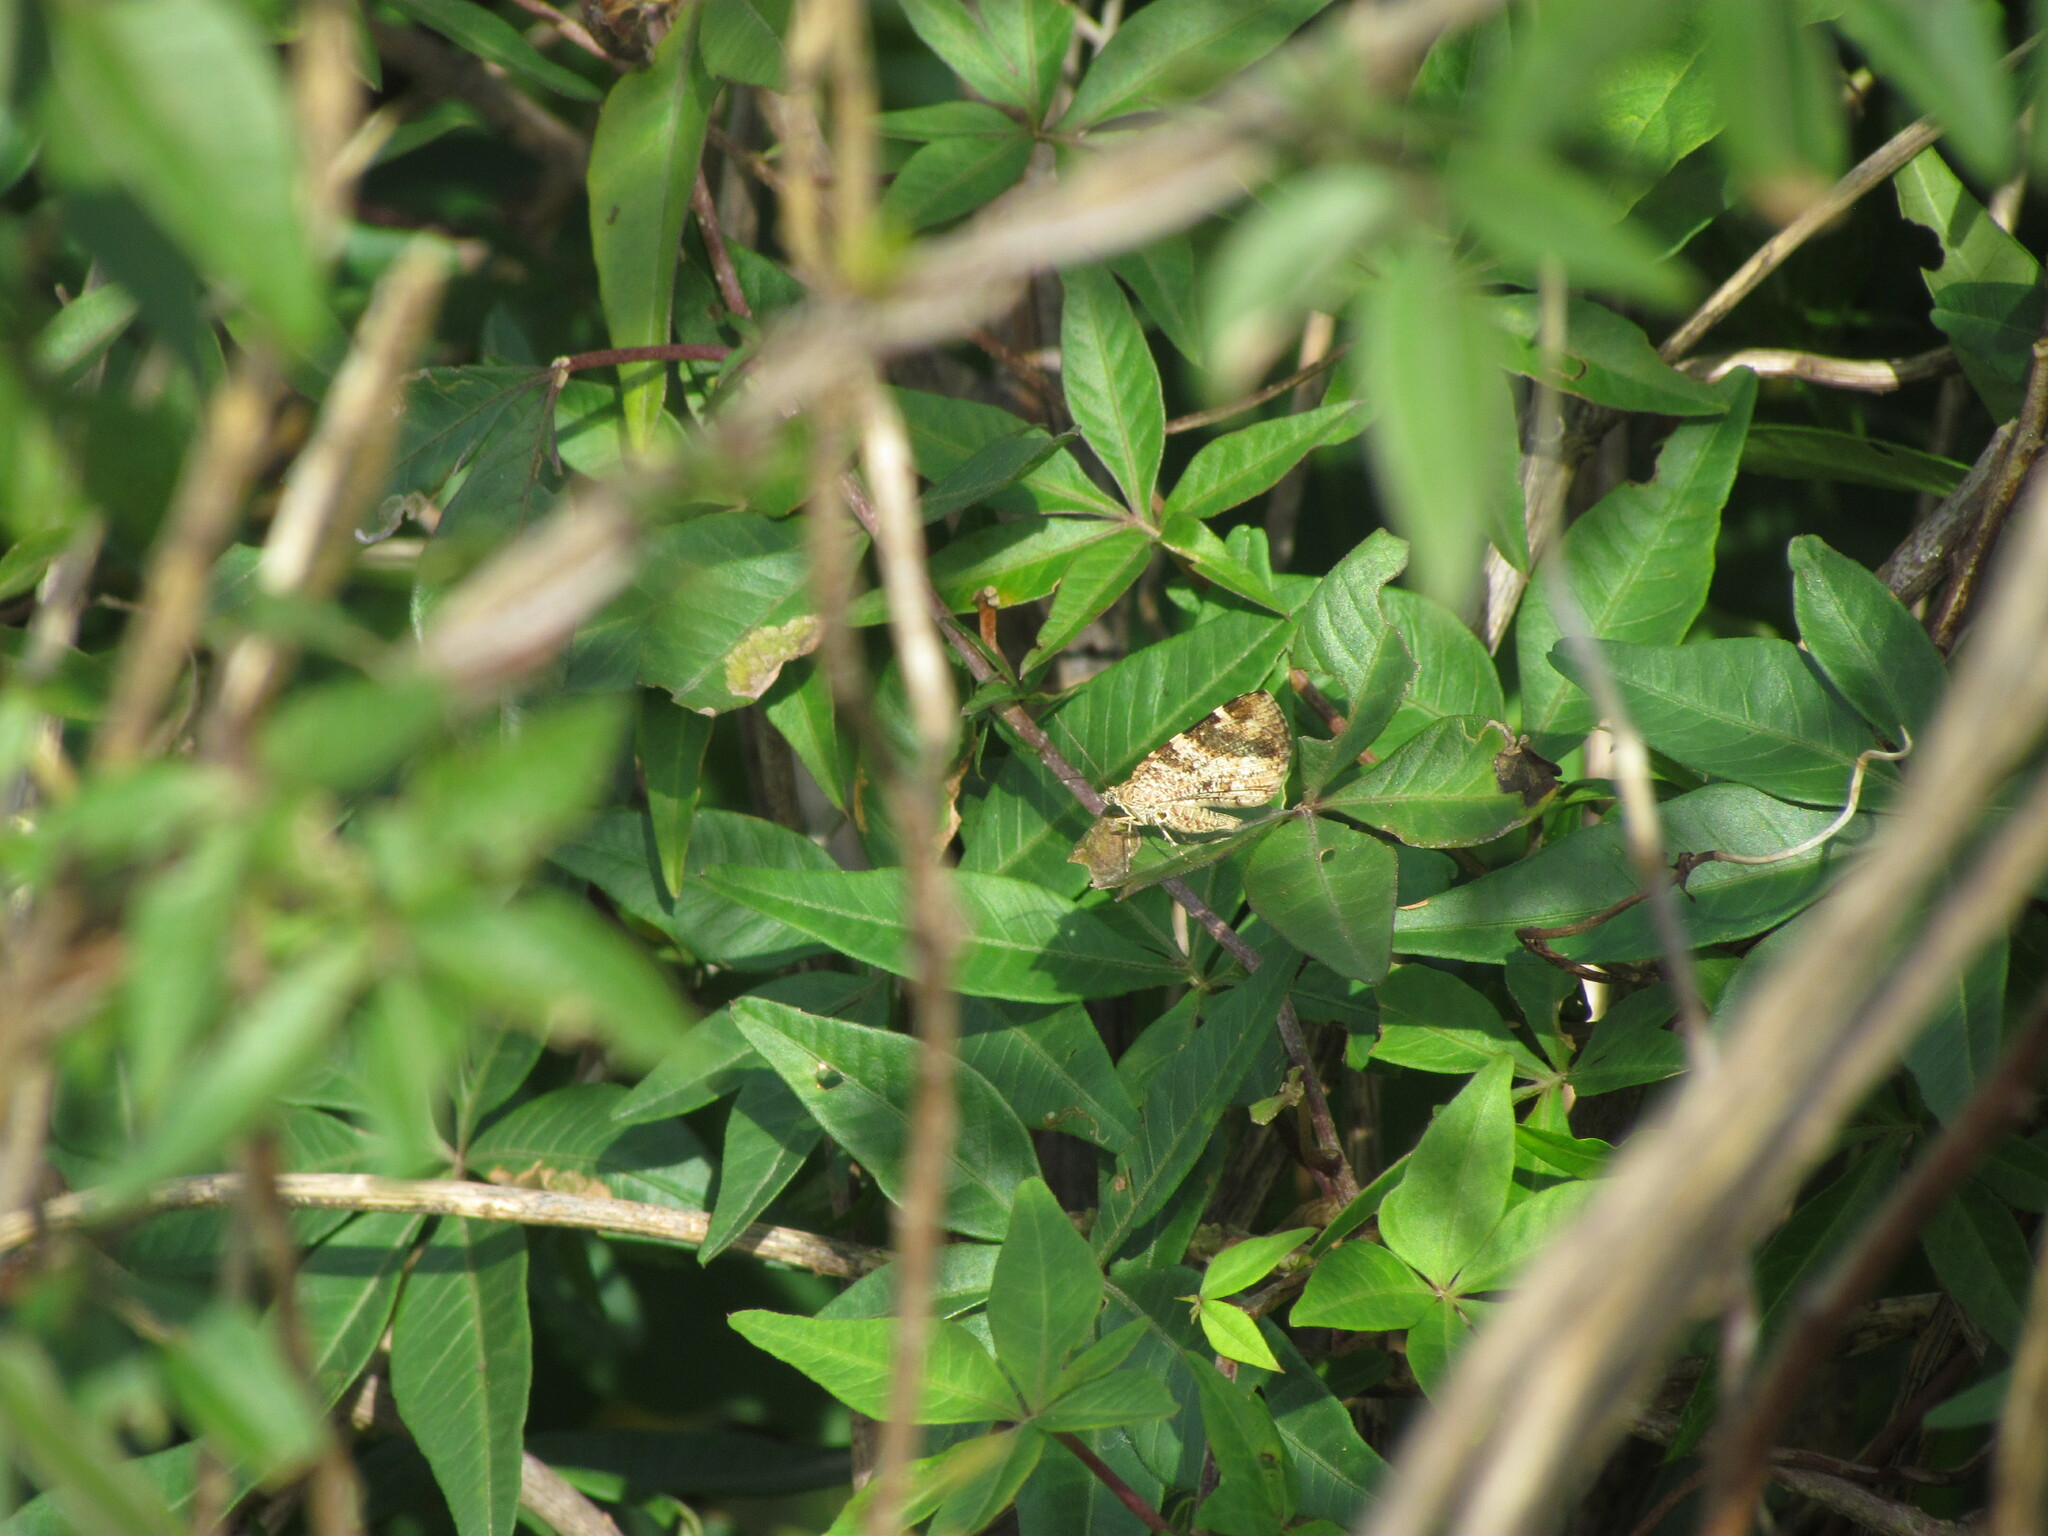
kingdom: Animalia
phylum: Arthropoda
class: Insecta
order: Lepidoptera
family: Geometridae
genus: Heterusia
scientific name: Heterusia quadruplicaria
